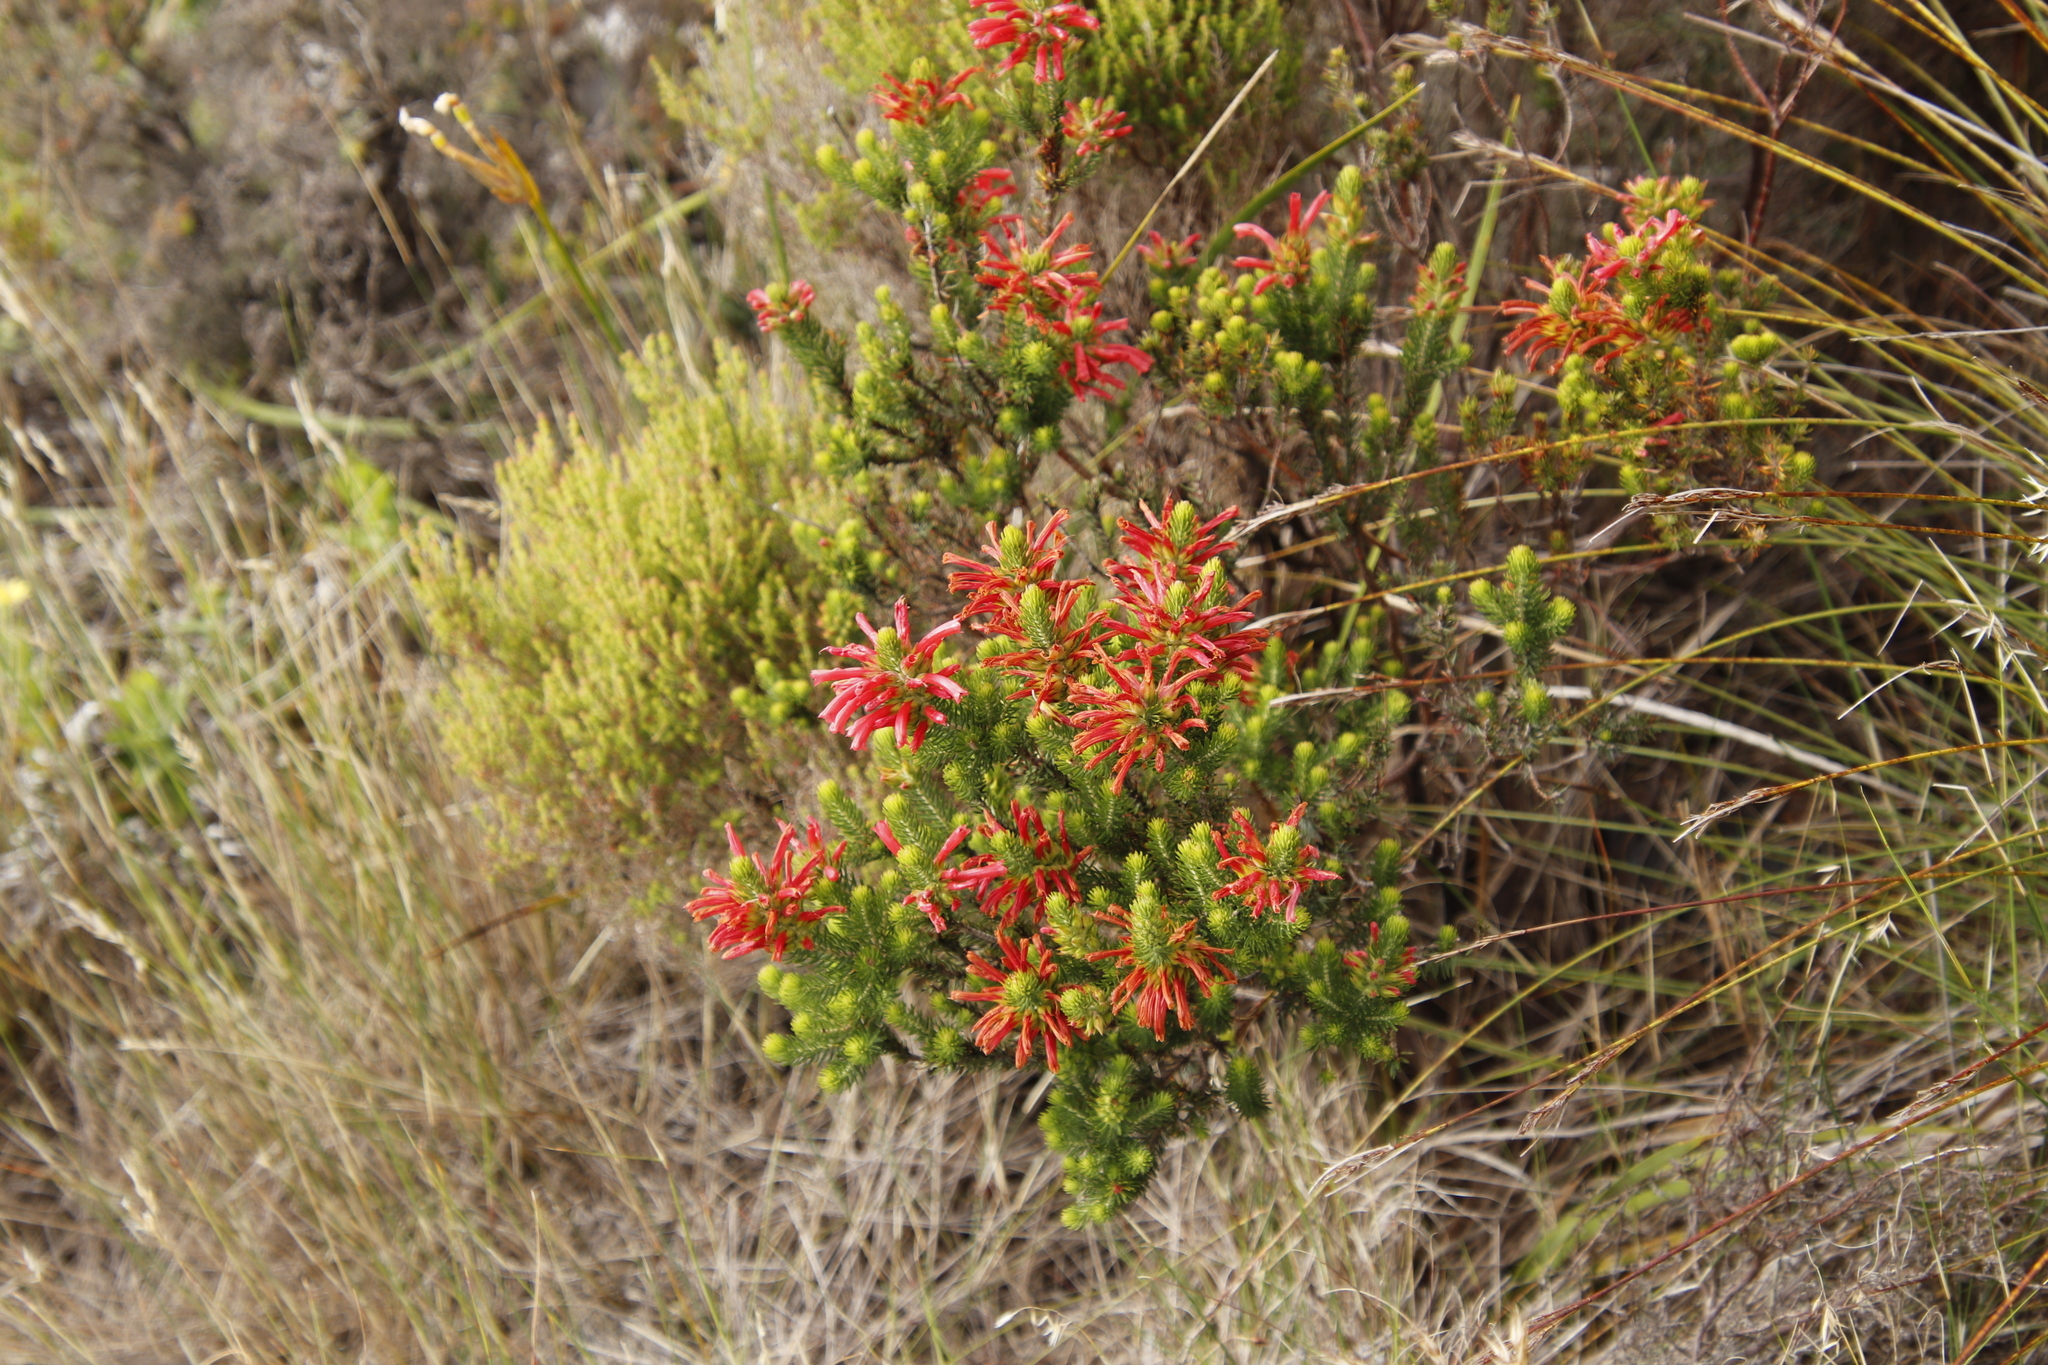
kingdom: Plantae
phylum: Tracheophyta
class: Magnoliopsida
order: Ericales
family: Ericaceae
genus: Erica
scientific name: Erica abietina
